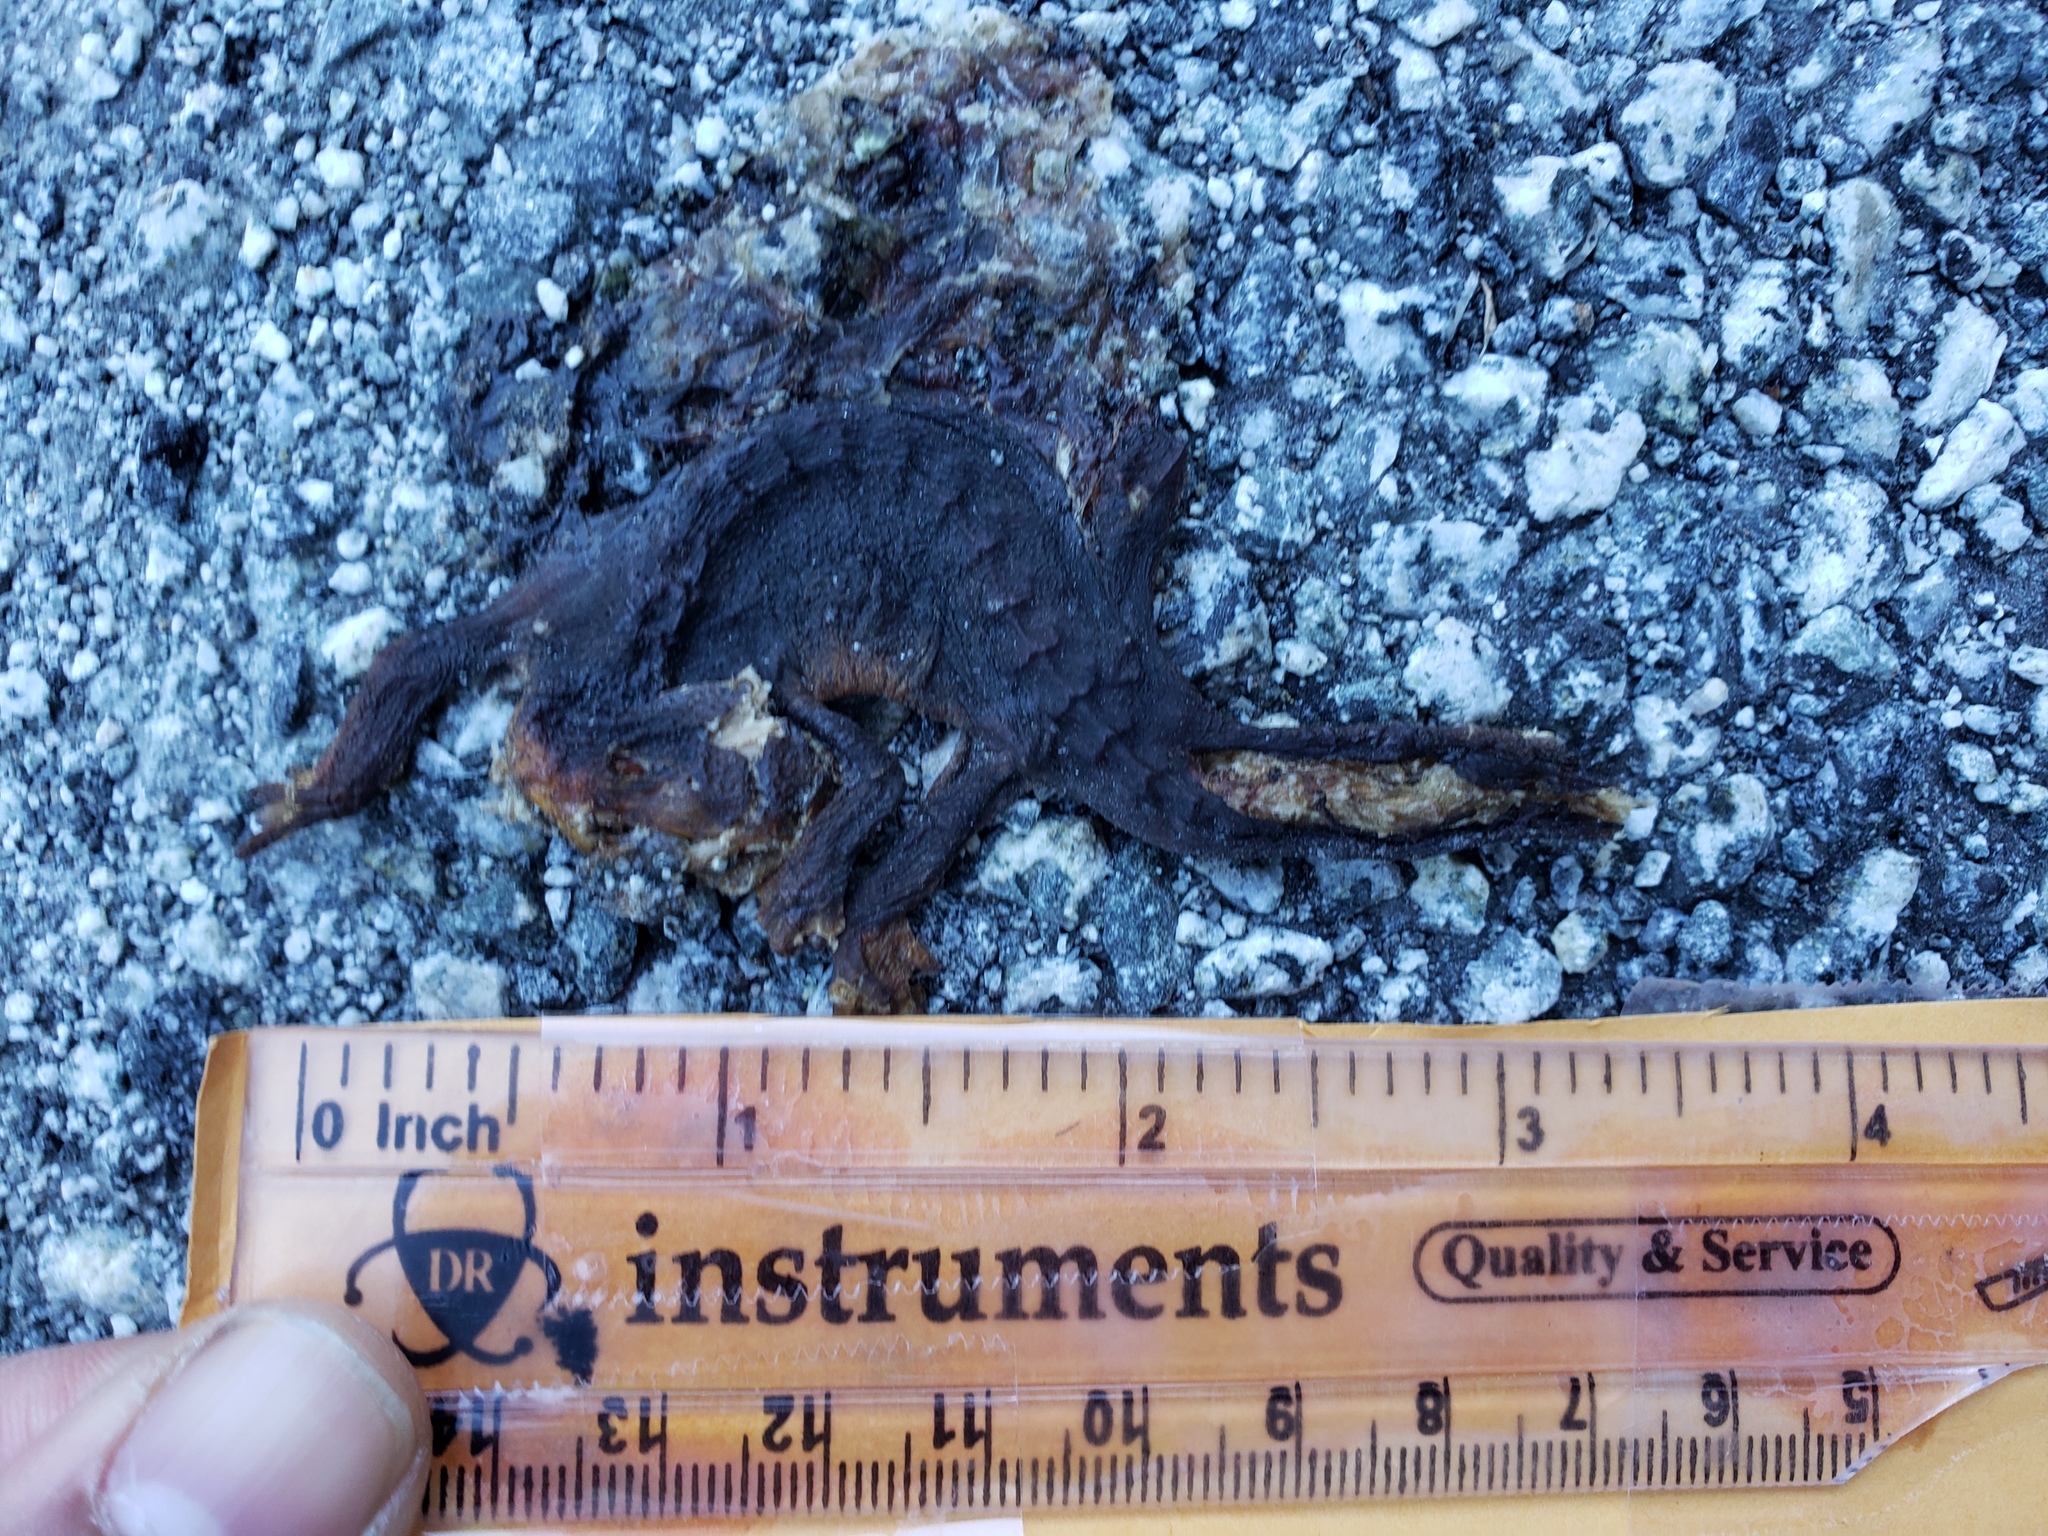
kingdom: Animalia
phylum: Chordata
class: Amphibia
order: Caudata
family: Salamandridae
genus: Taricha
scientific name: Taricha
